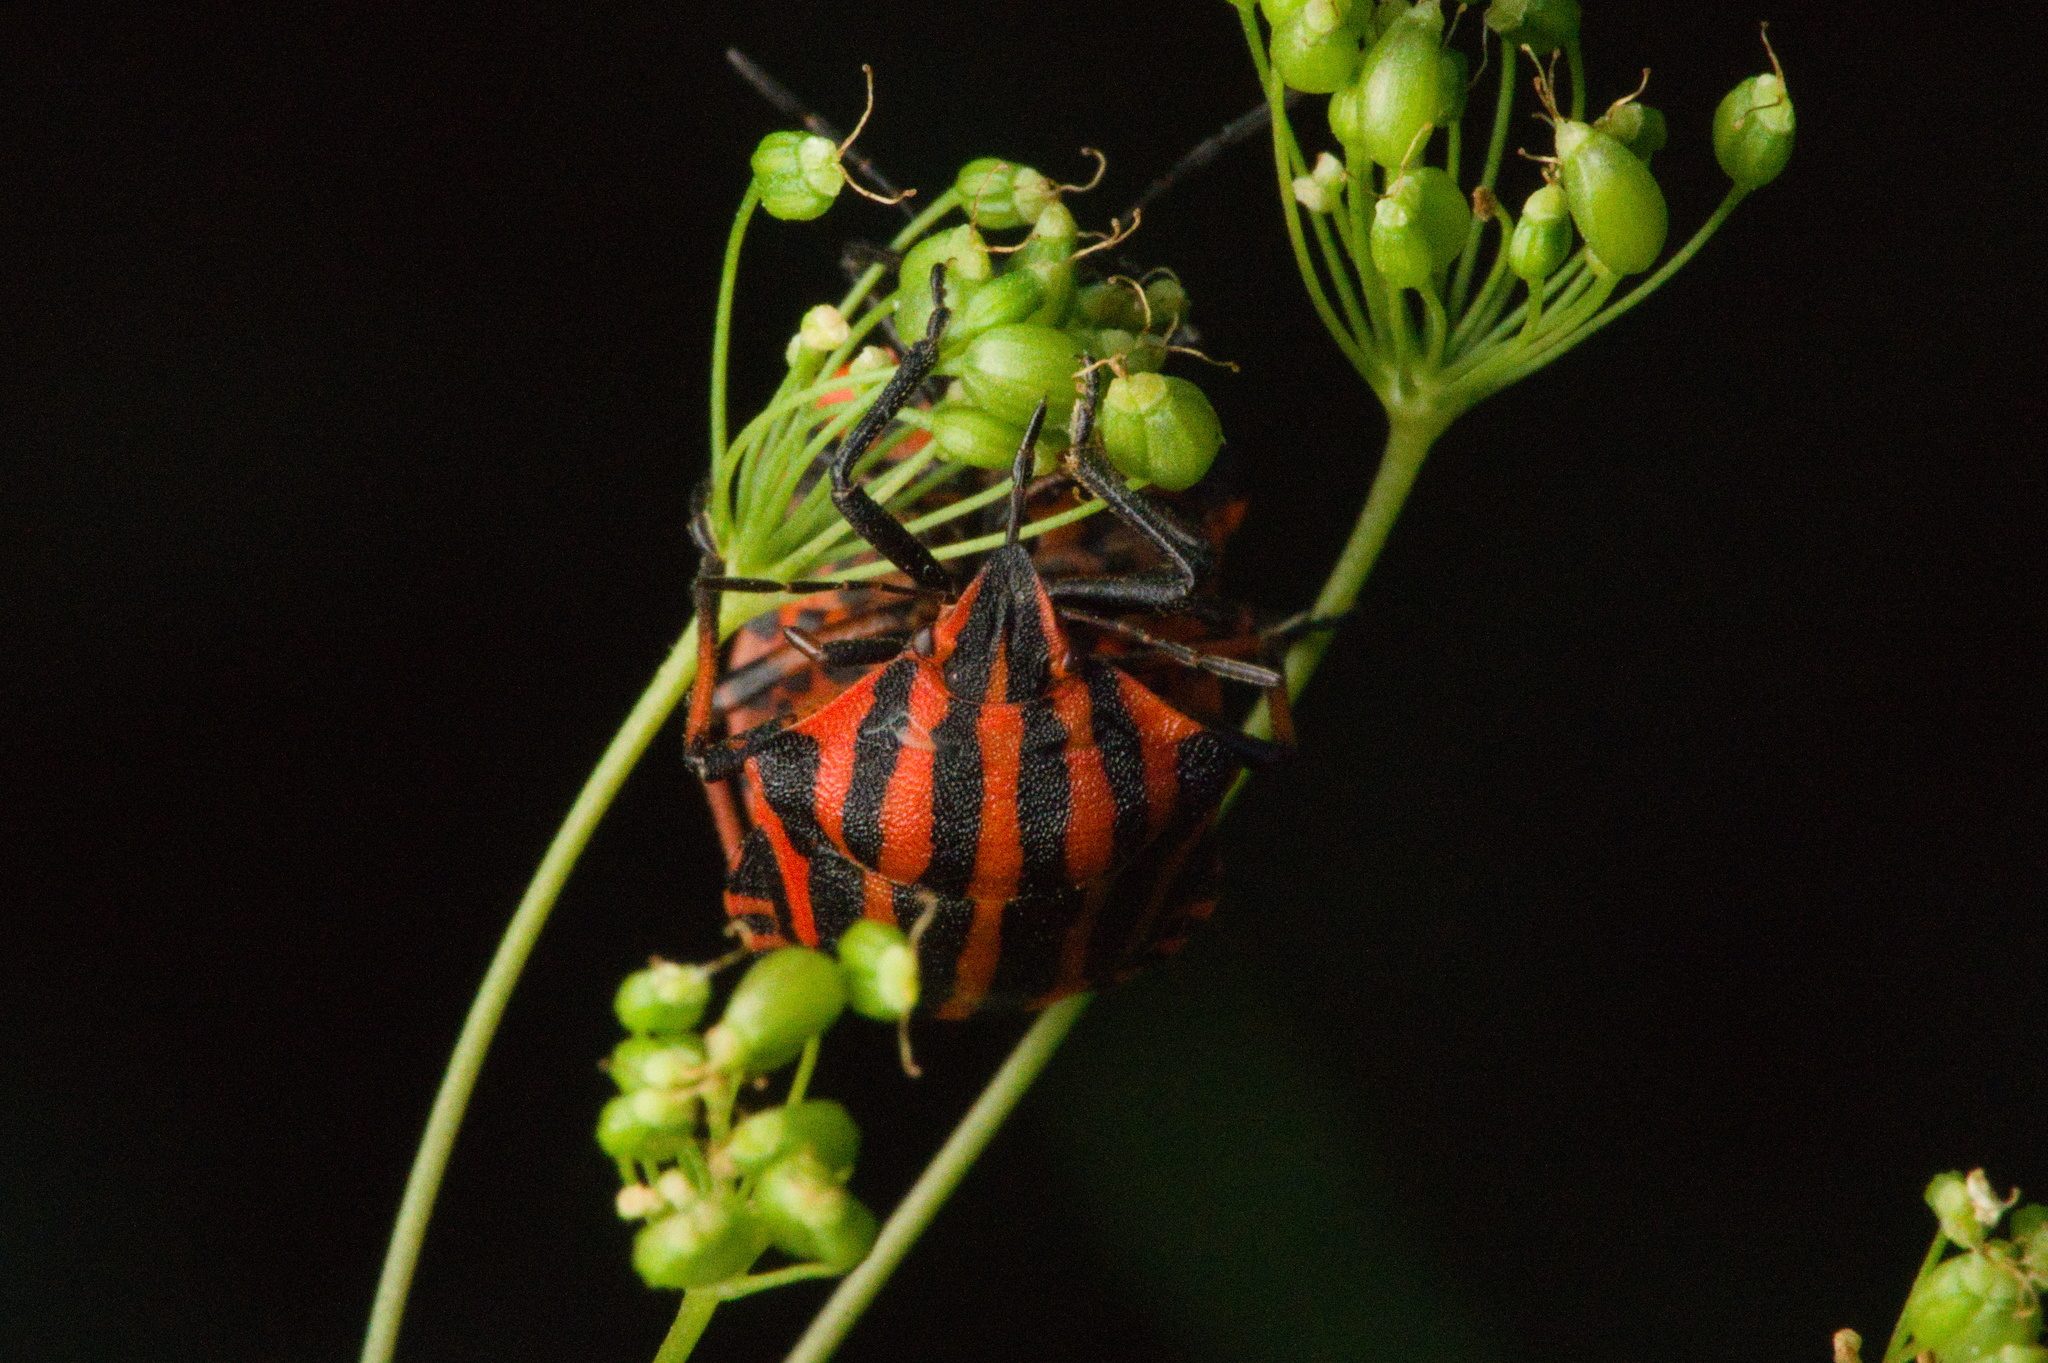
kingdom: Animalia
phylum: Arthropoda
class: Insecta
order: Hemiptera
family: Pentatomidae
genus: Graphosoma
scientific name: Graphosoma italicum
